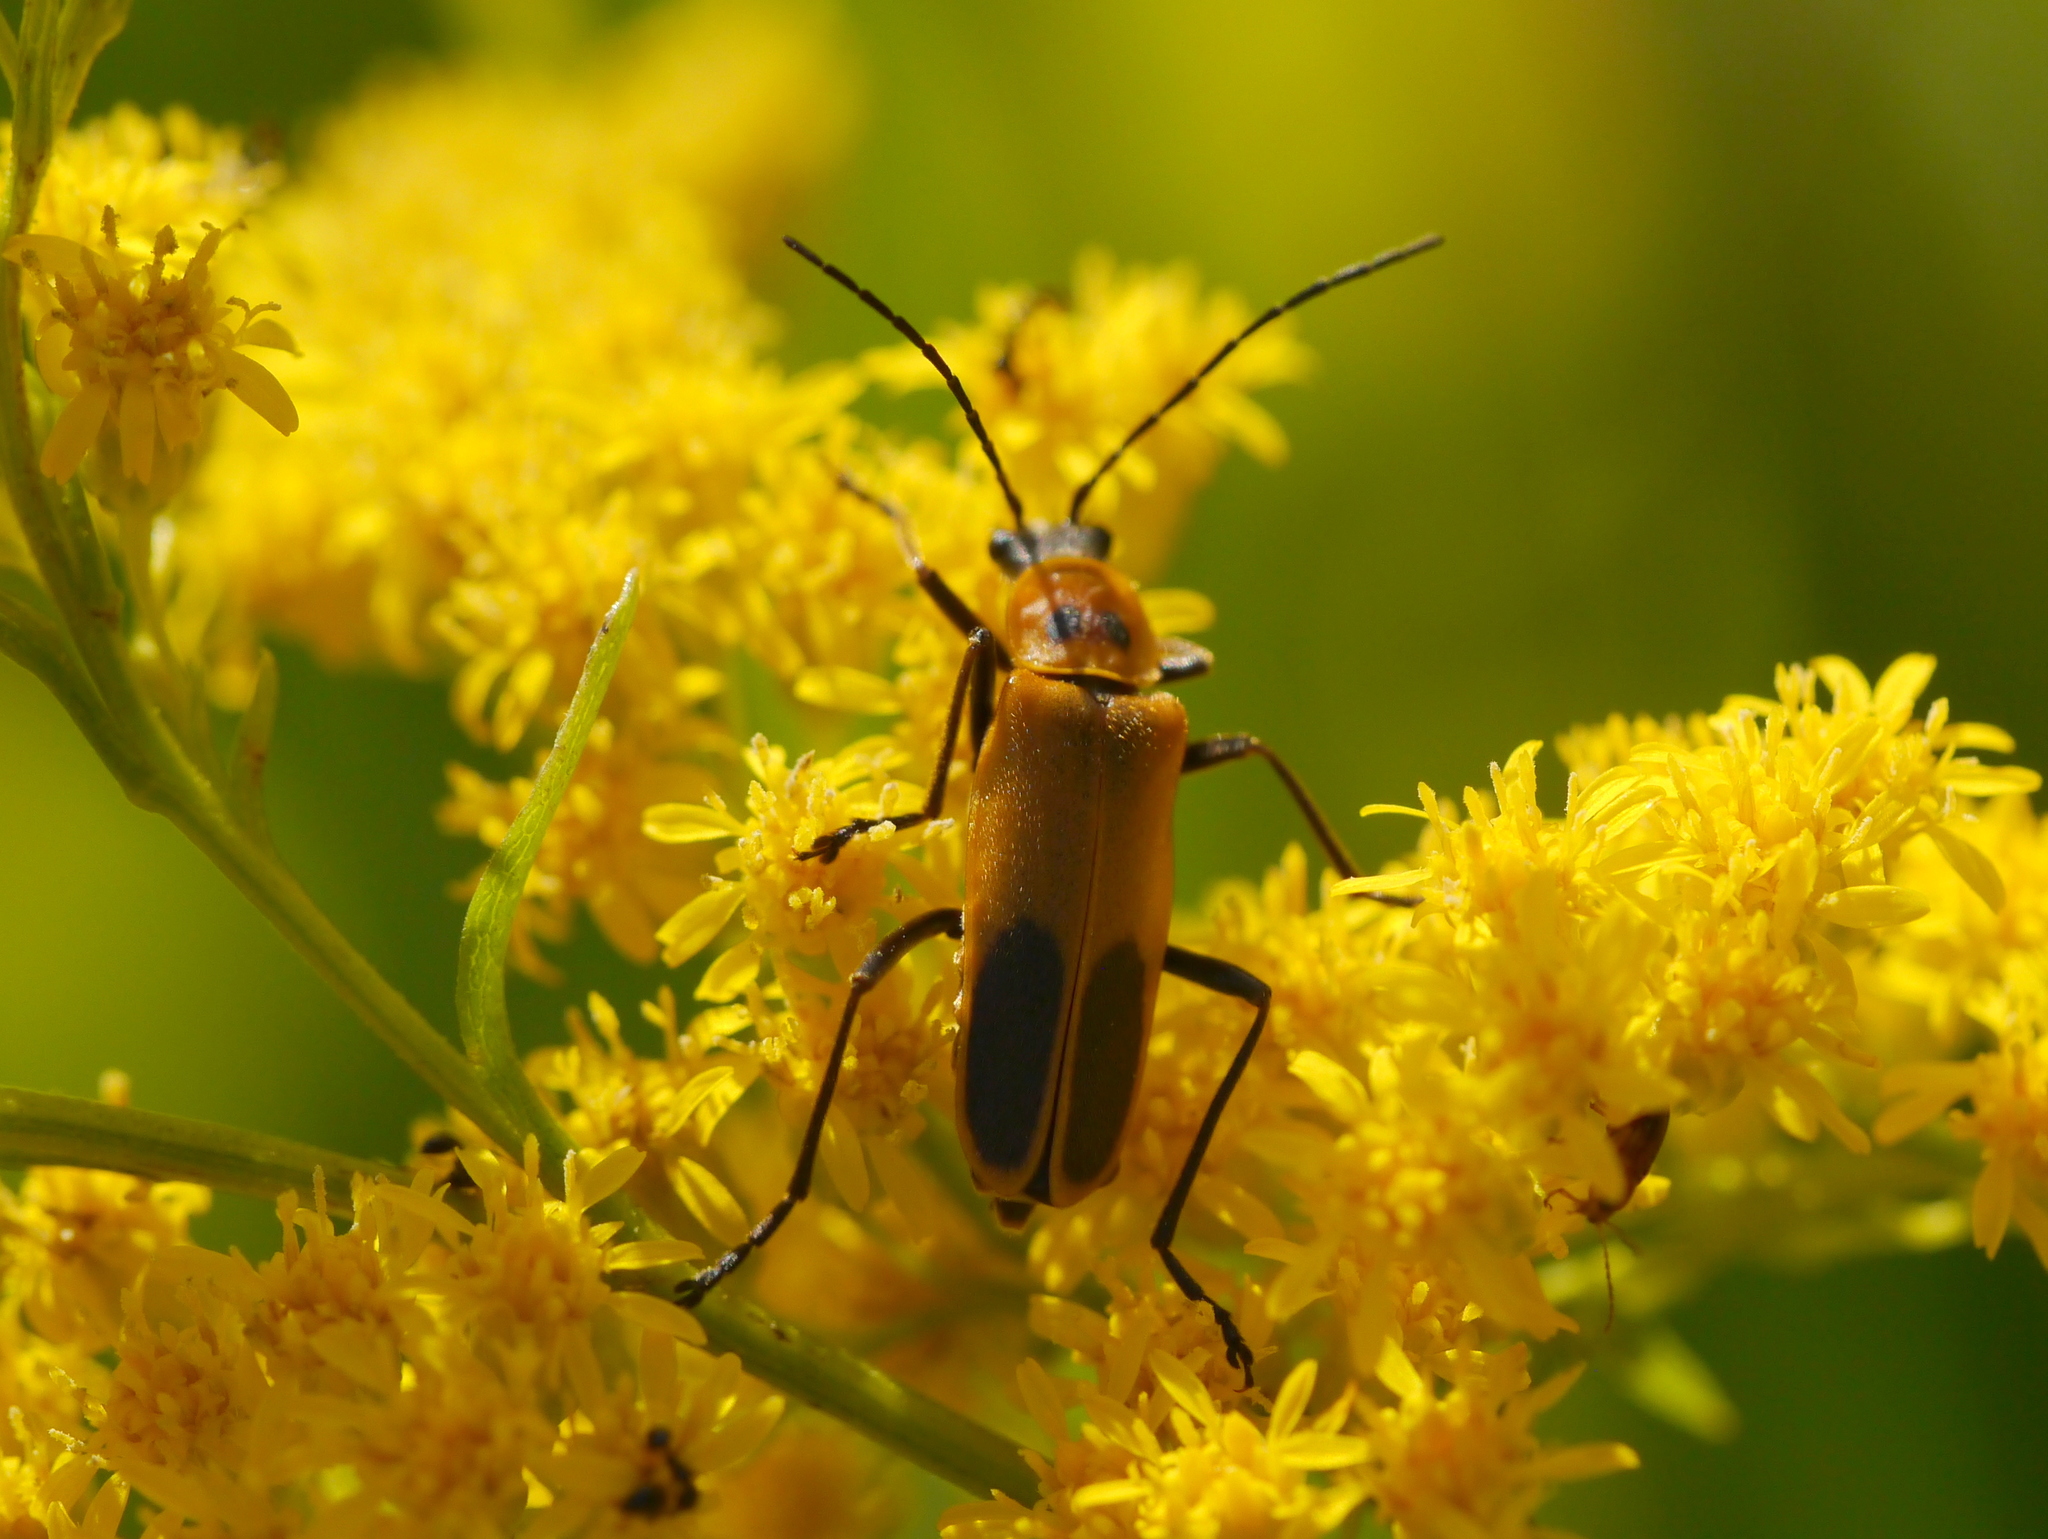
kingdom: Animalia
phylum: Arthropoda
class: Insecta
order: Coleoptera
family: Cantharidae
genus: Chauliognathus
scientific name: Chauliognathus pensylvanicus
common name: Goldenrod soldier beetle
